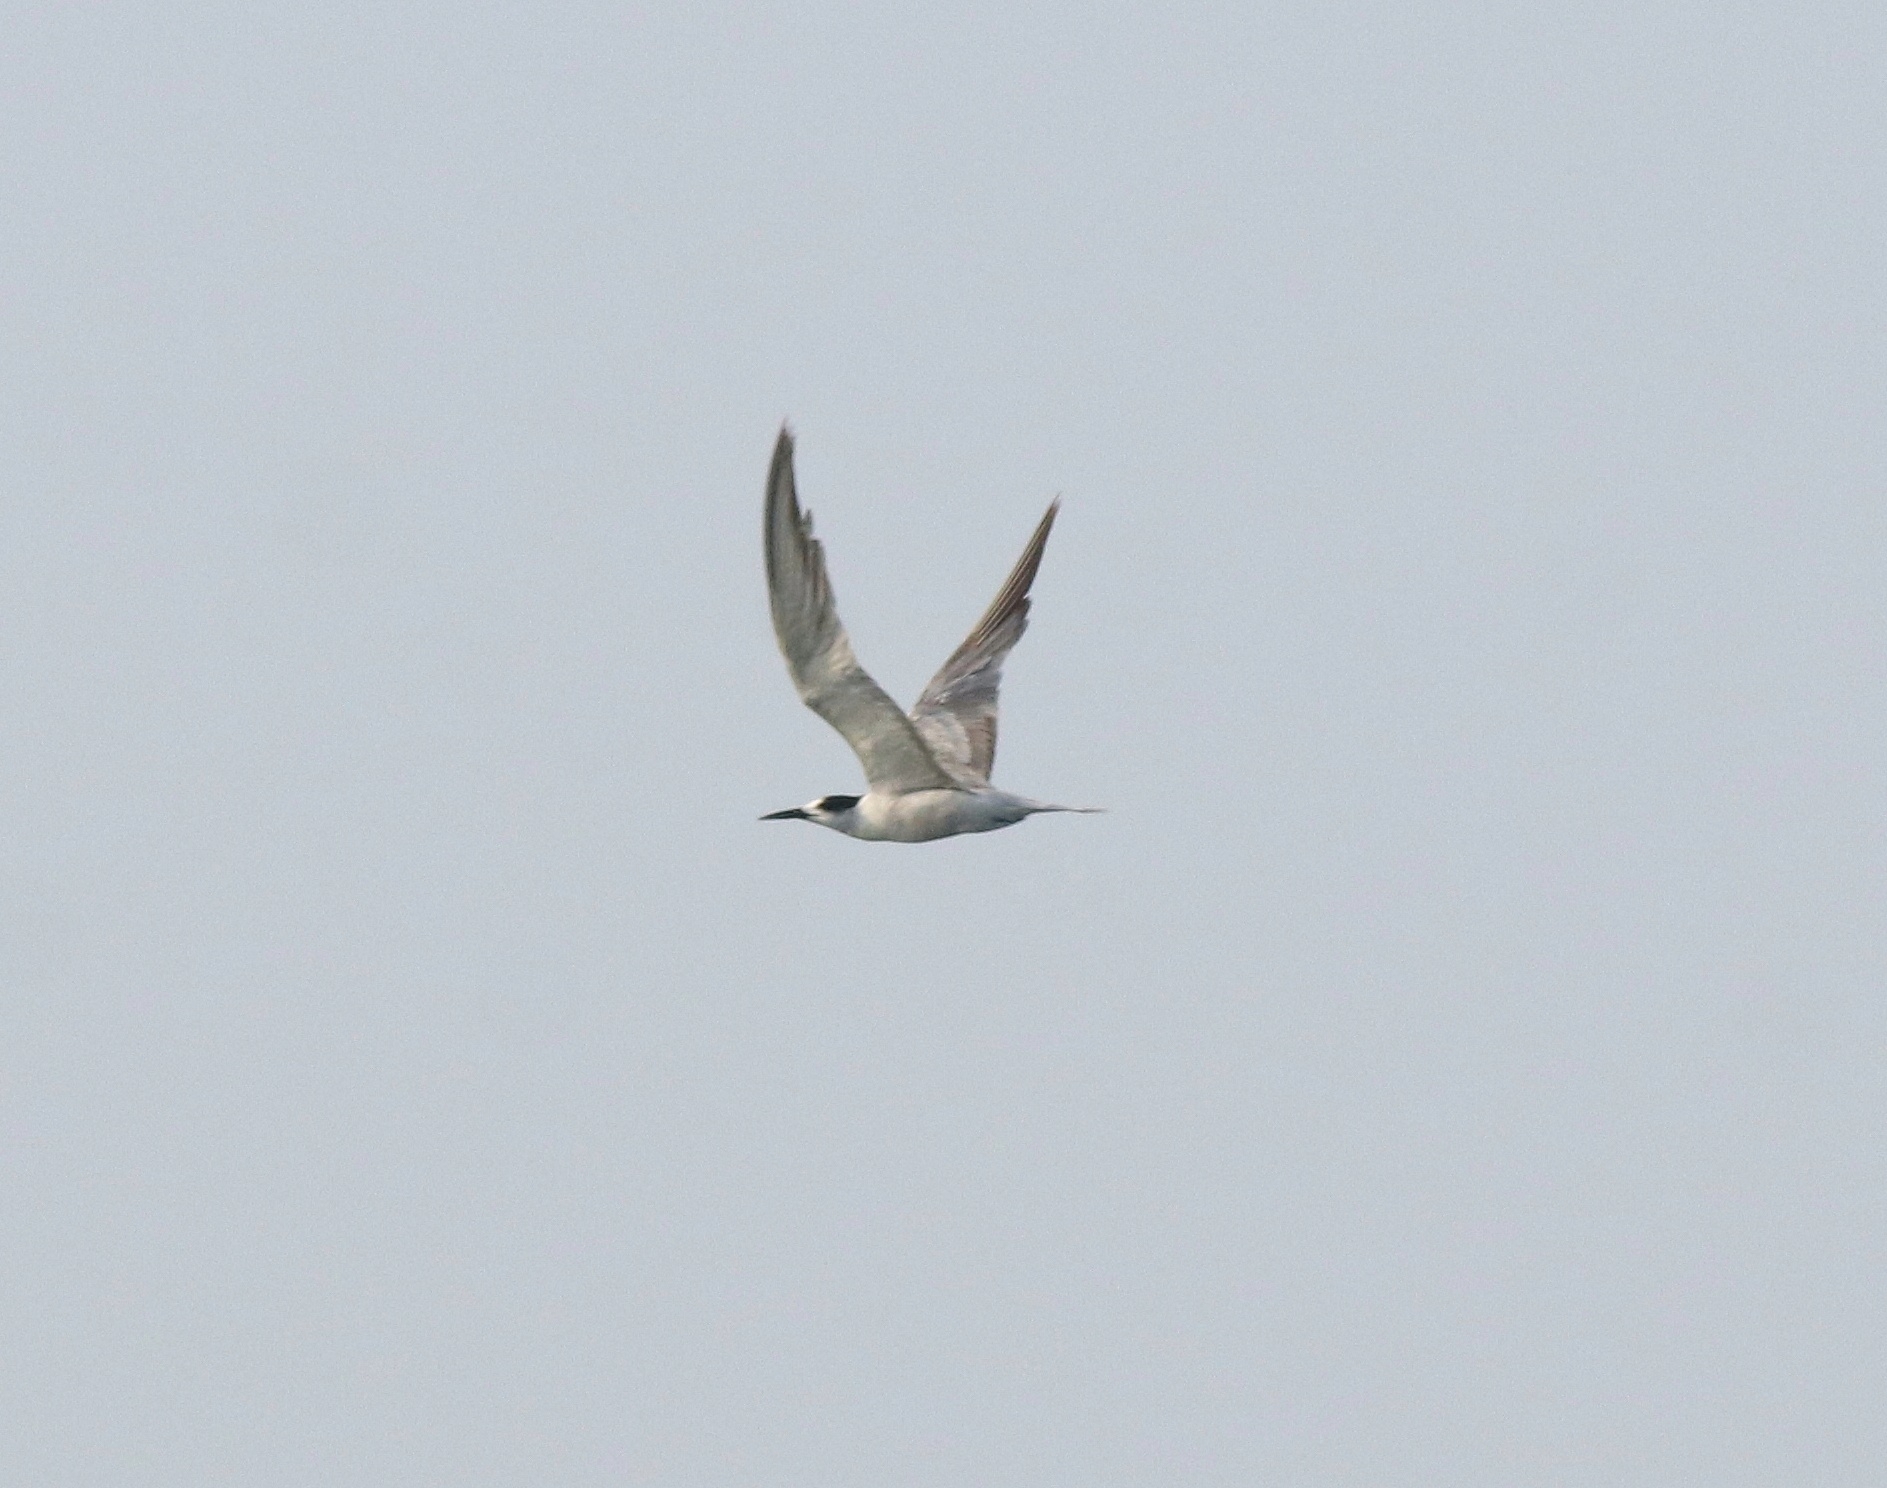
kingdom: Animalia
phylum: Chordata
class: Aves
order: Charadriiformes
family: Laridae
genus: Sterna
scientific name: Sterna repressa
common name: White-cheeked tern
